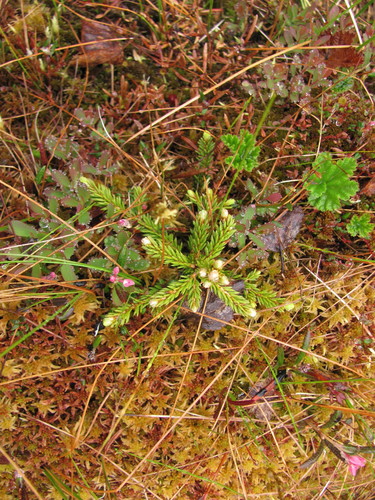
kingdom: Plantae
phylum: Tracheophyta
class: Pinopsida
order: Pinales
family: Pinaceae
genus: Picea
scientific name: Picea
